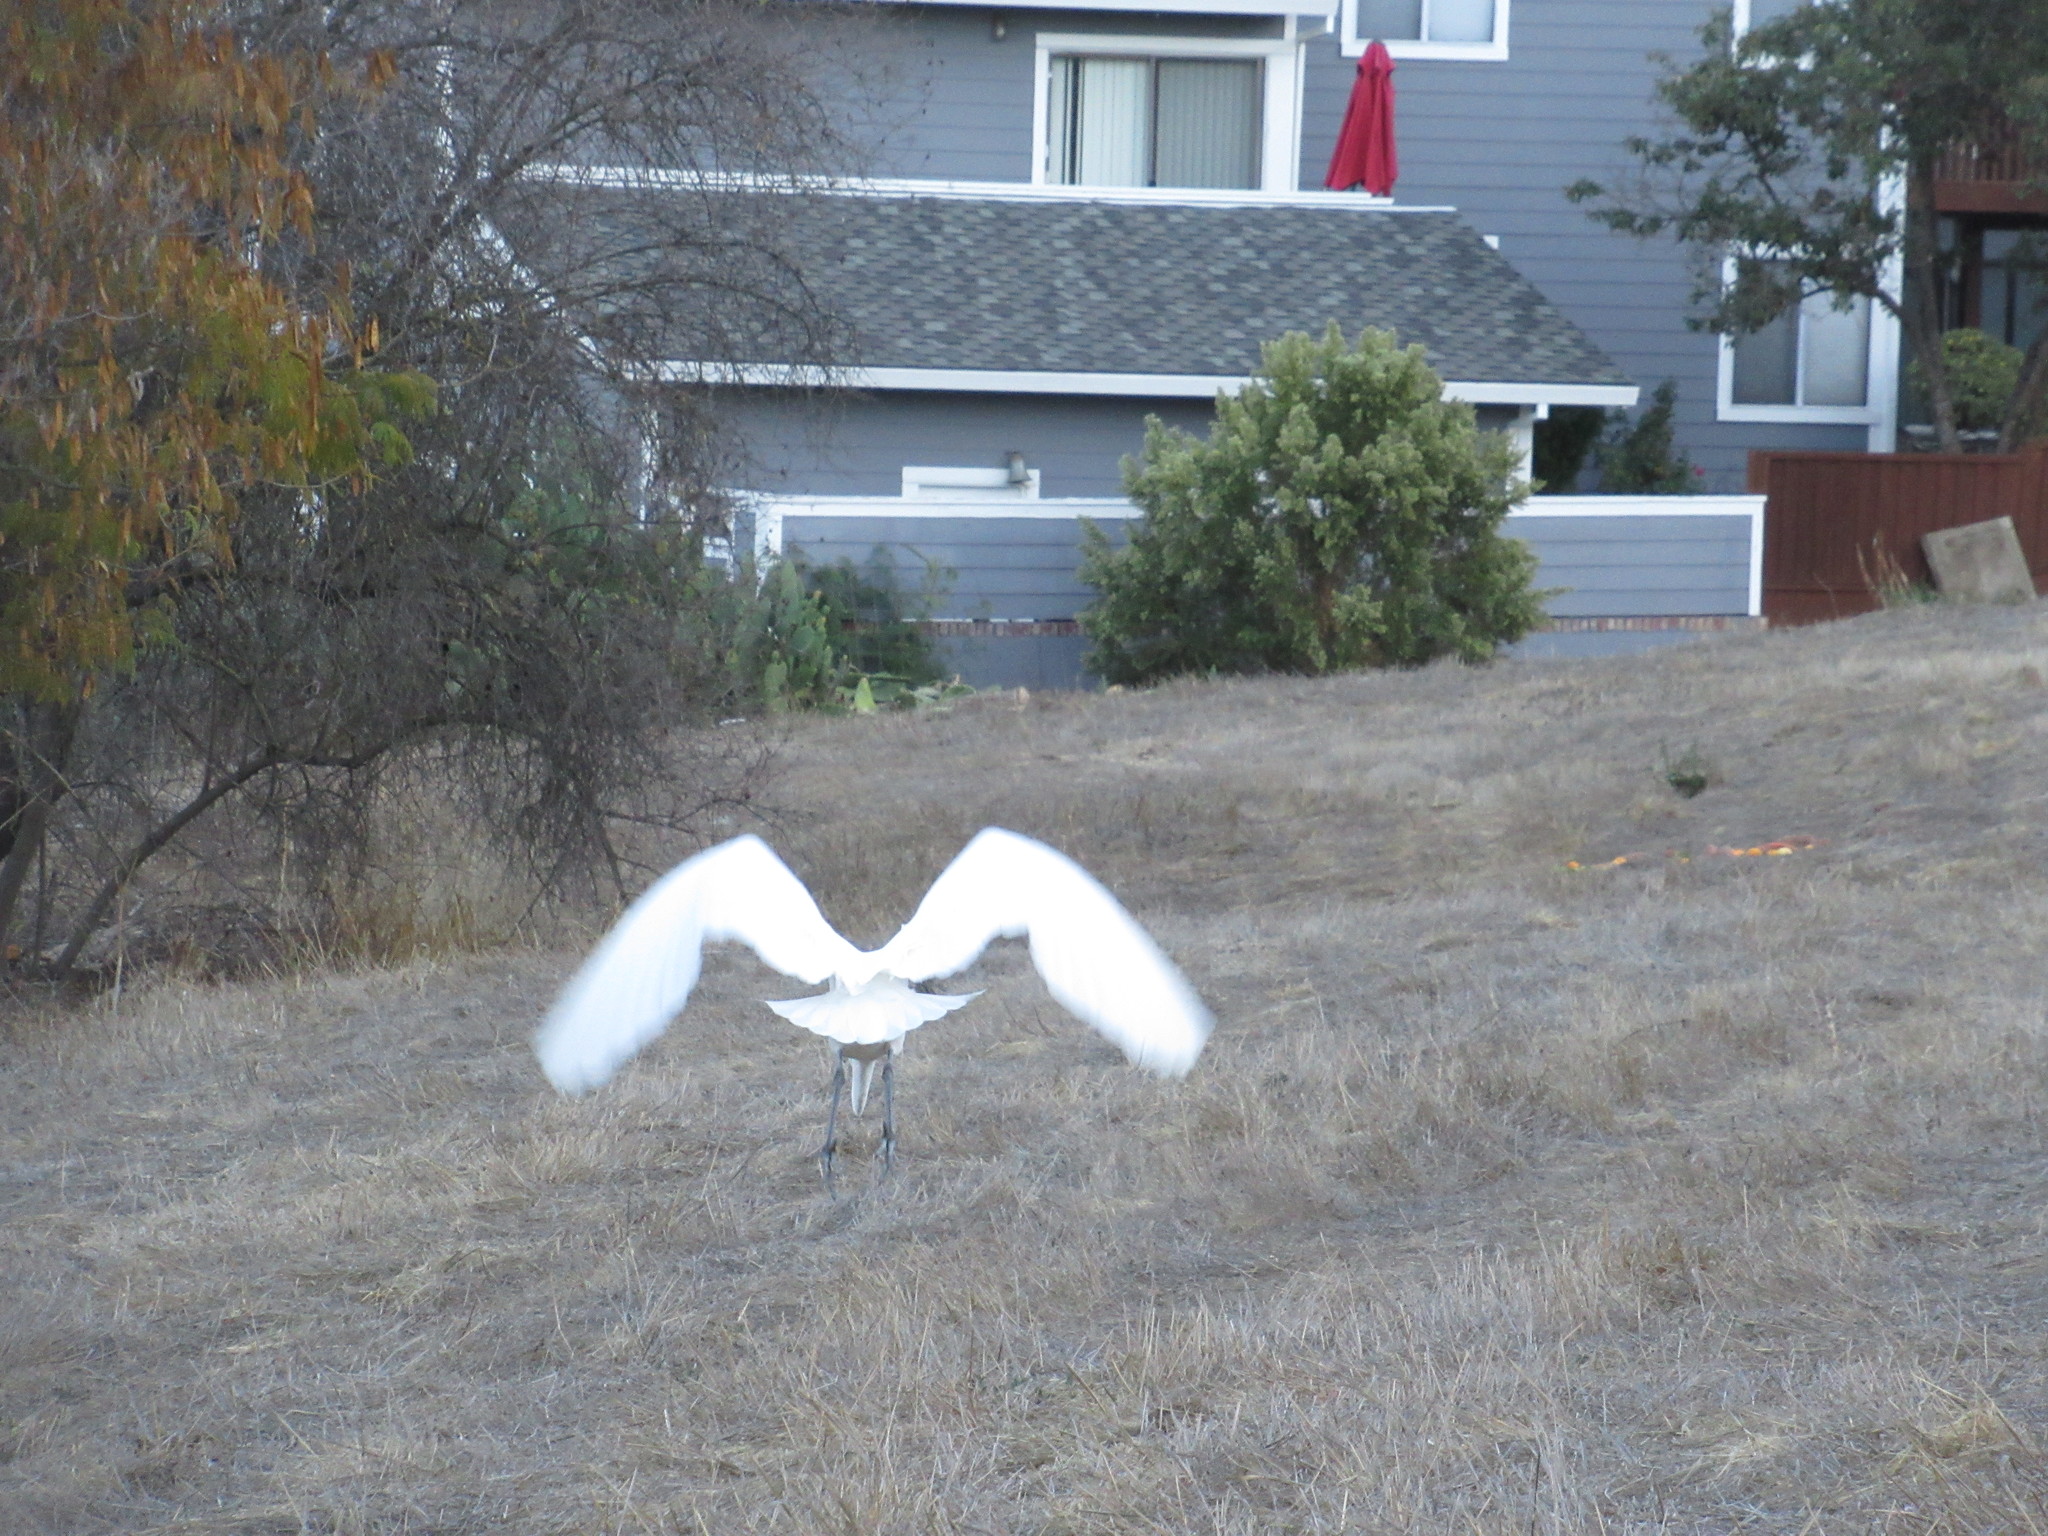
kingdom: Animalia
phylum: Chordata
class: Aves
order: Pelecaniformes
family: Ardeidae
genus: Ardea
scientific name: Ardea alba
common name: Great egret
